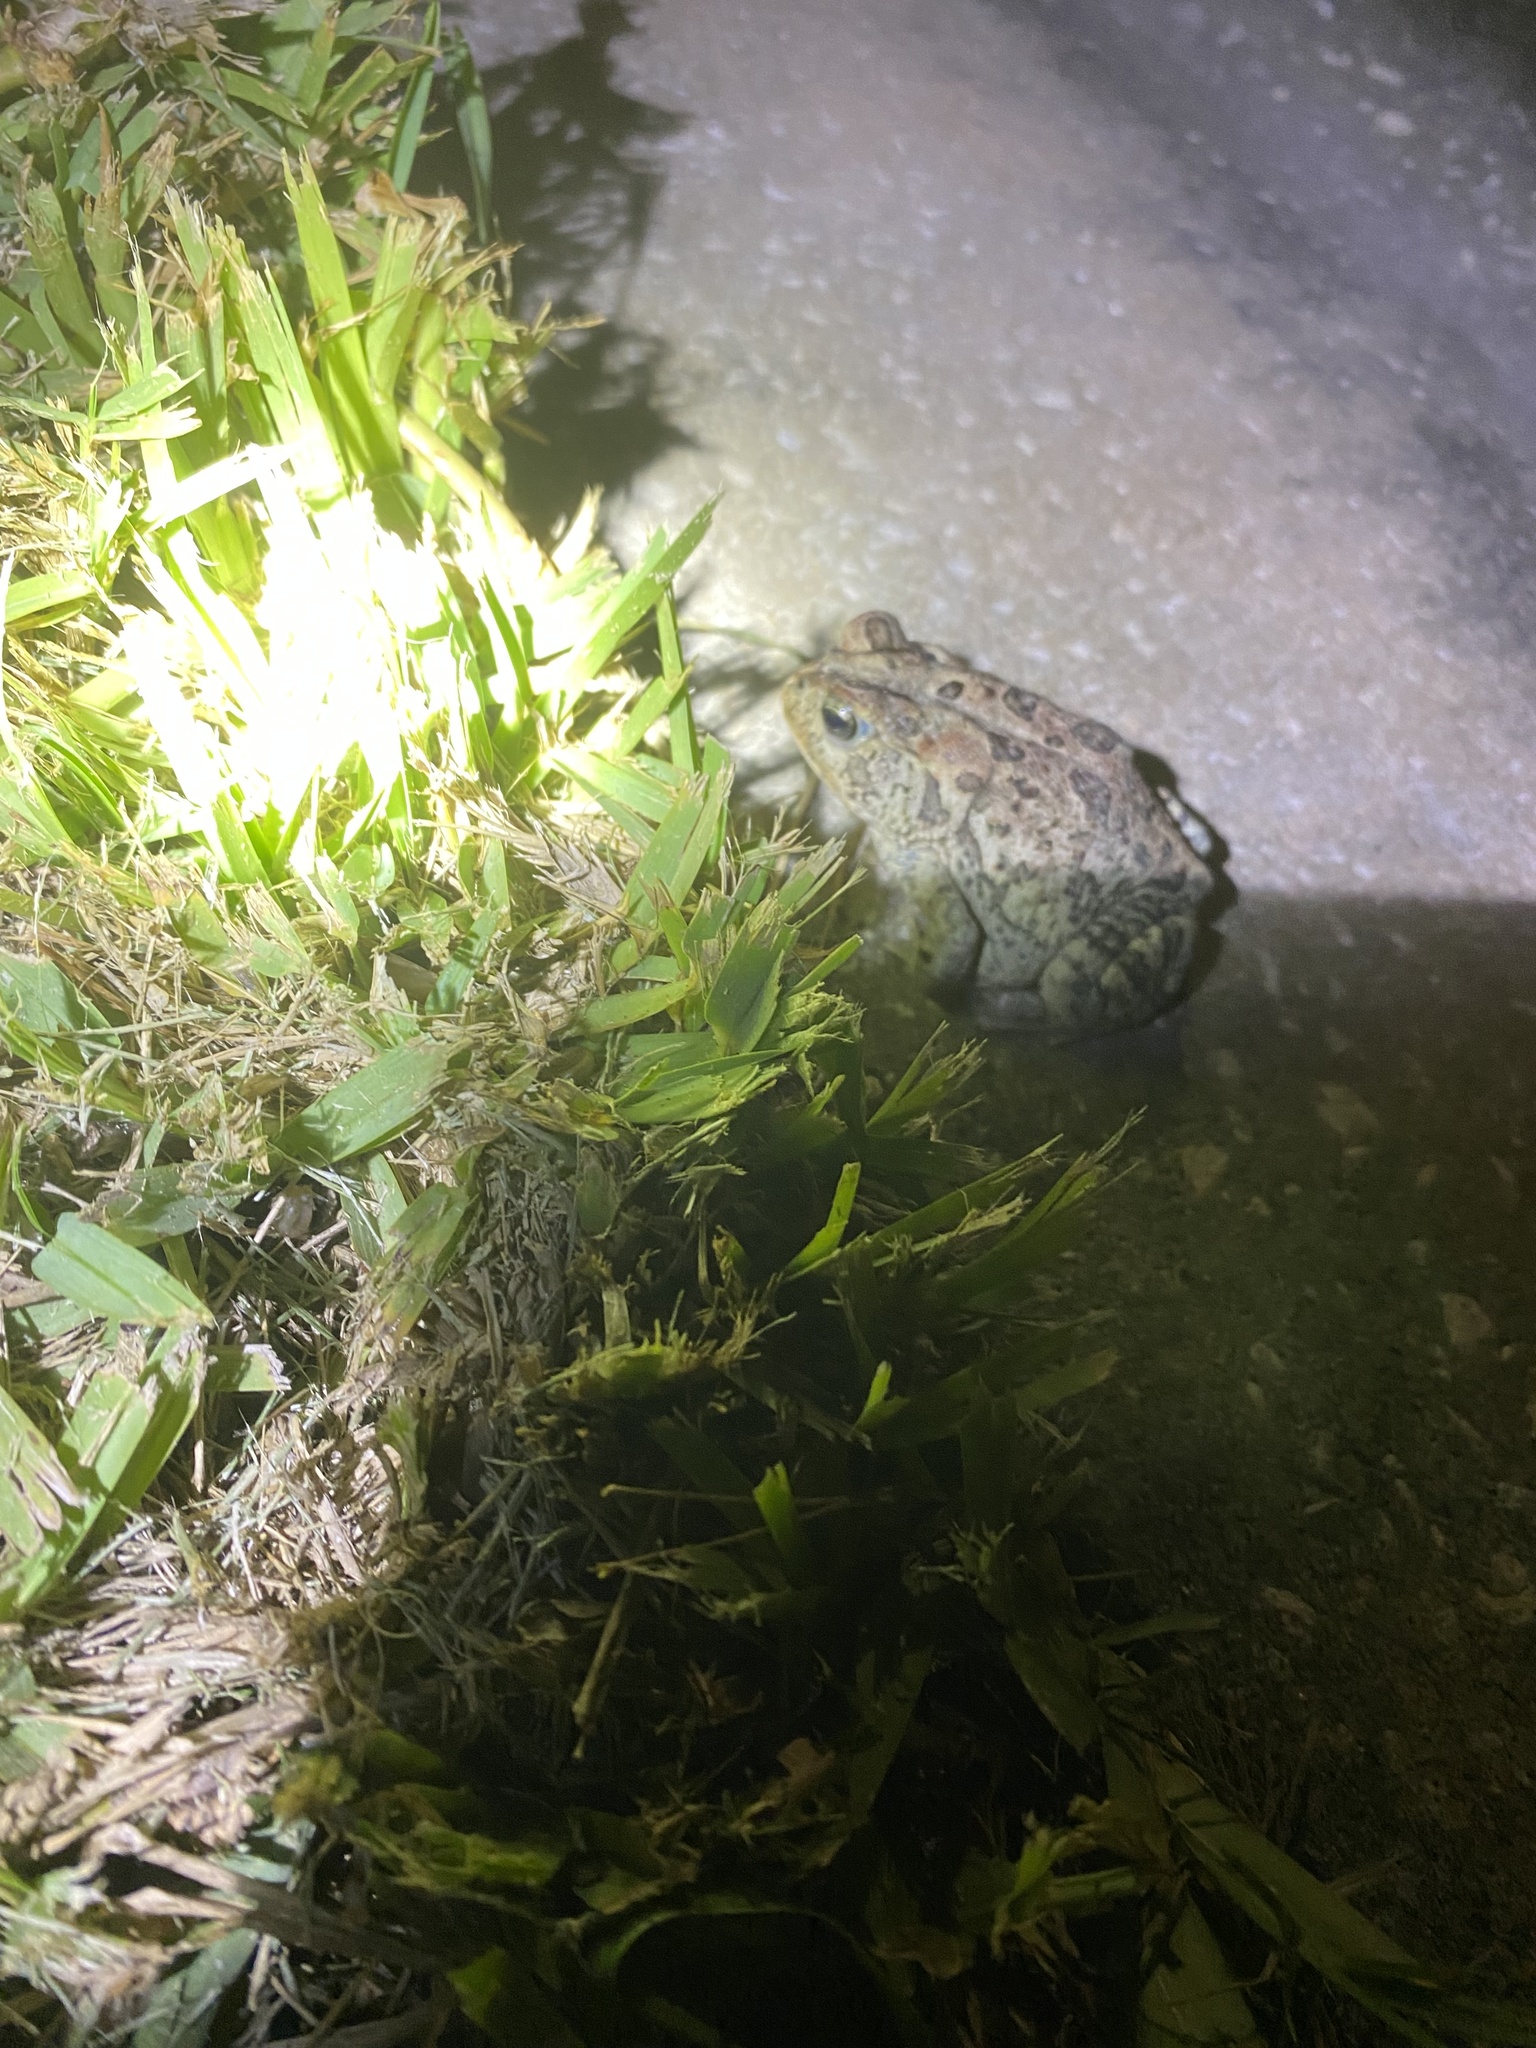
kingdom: Animalia
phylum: Chordata
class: Amphibia
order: Anura
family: Bufonidae
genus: Anaxyrus
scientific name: Anaxyrus terrestris
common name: Southern toad
